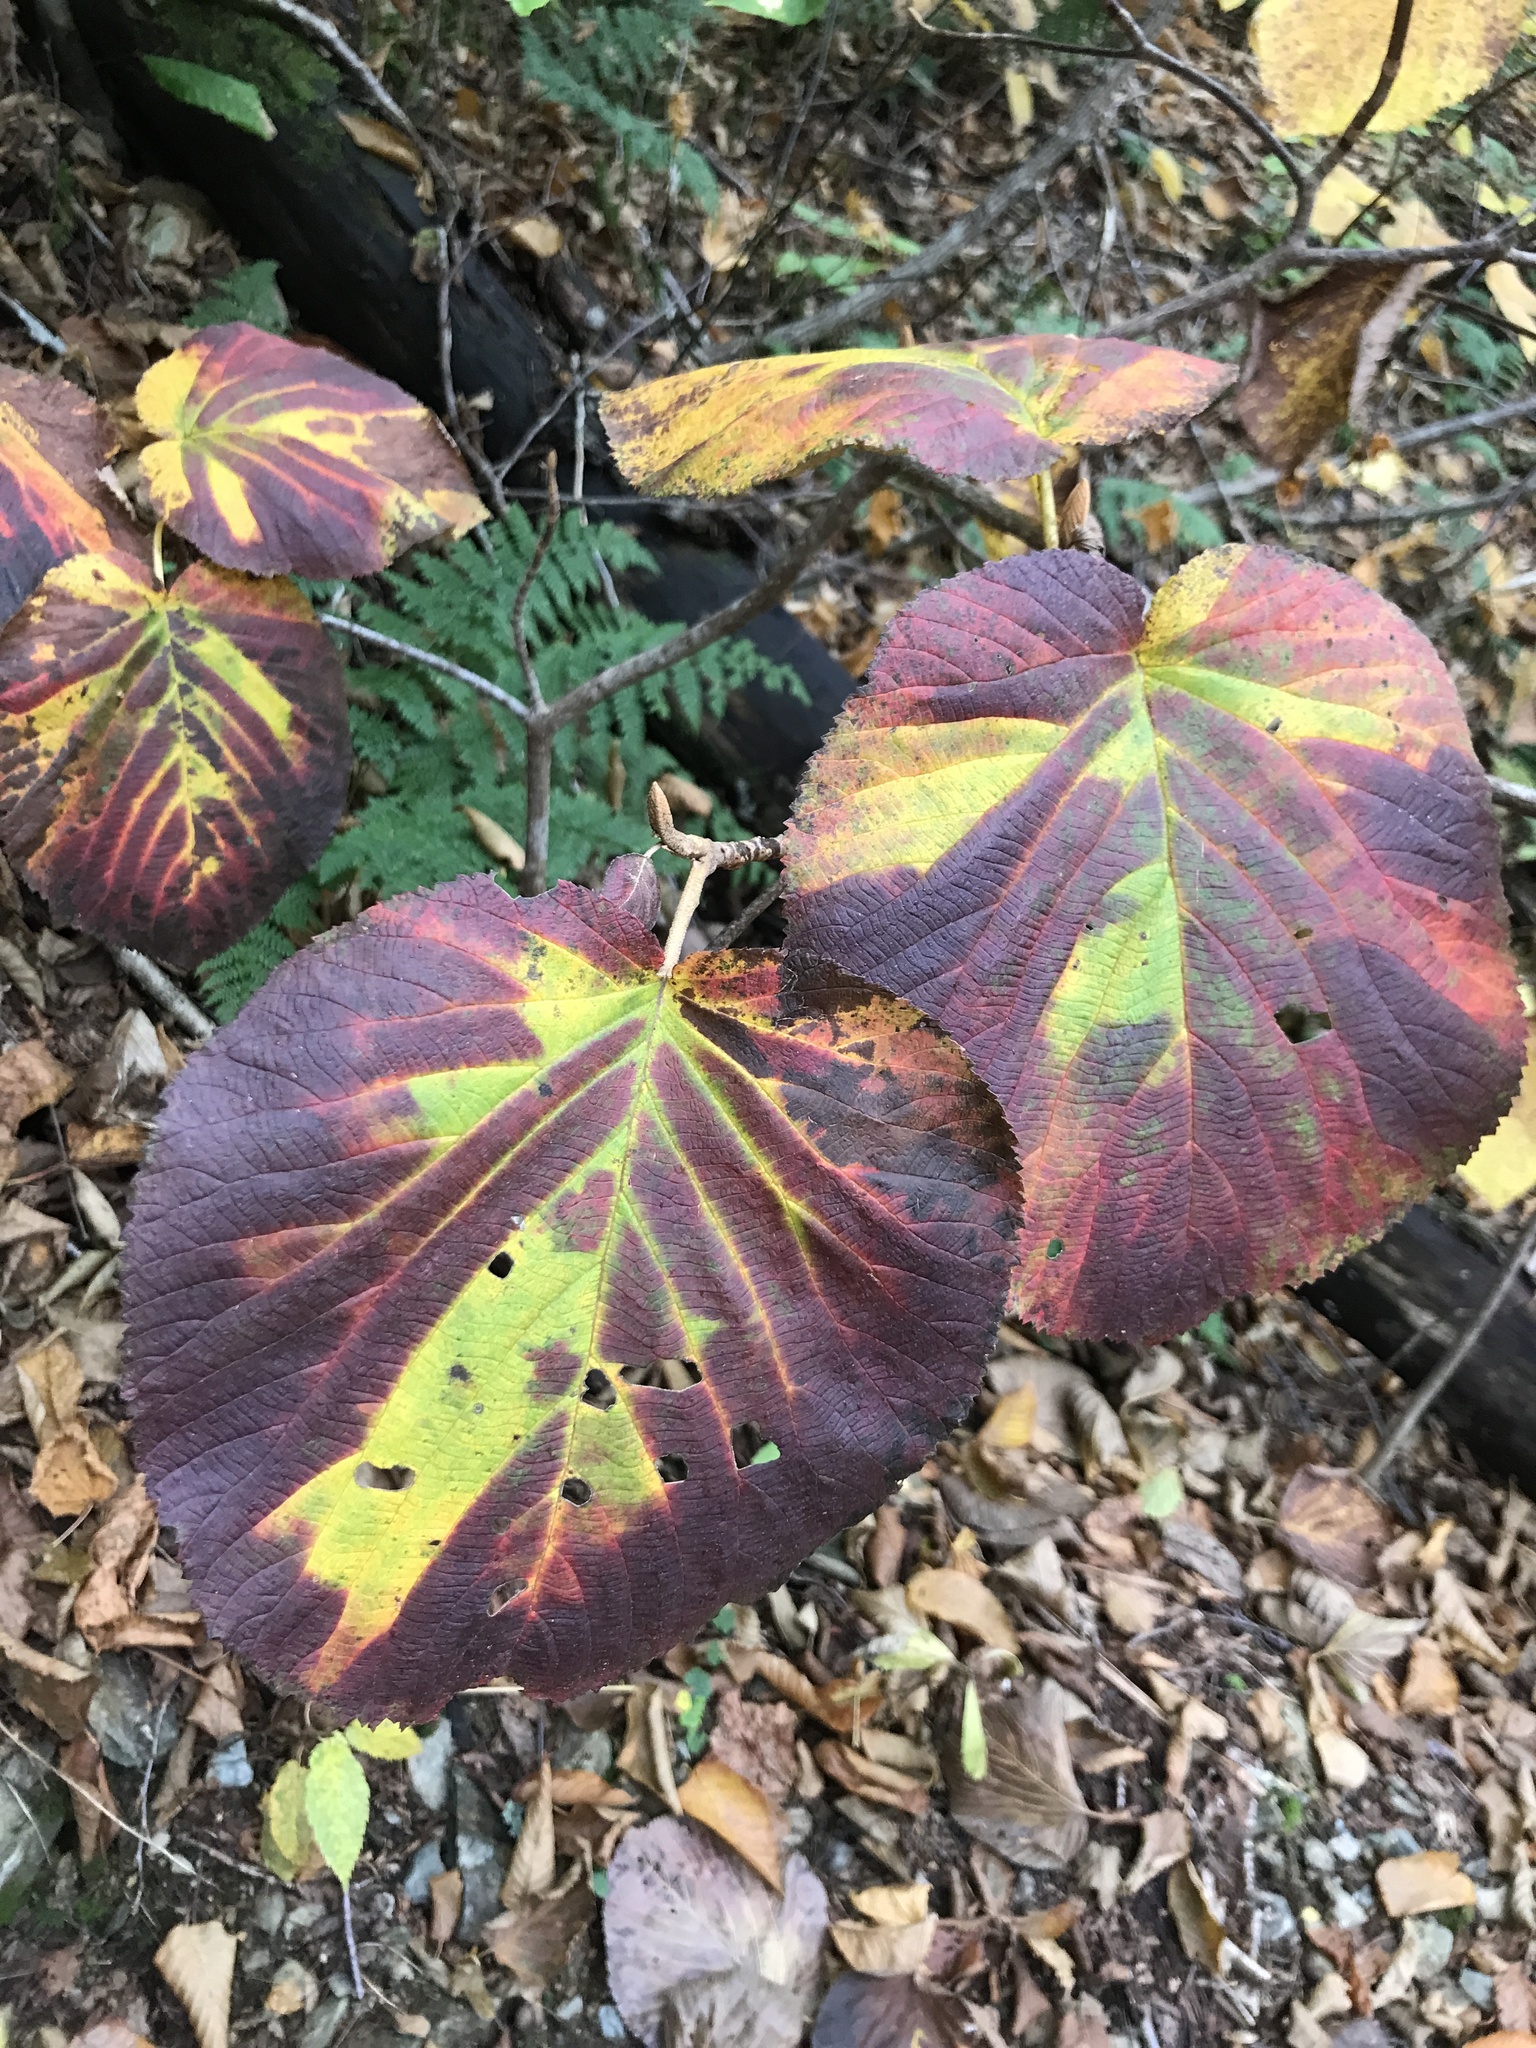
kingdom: Plantae
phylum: Tracheophyta
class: Magnoliopsida
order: Dipsacales
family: Viburnaceae
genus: Viburnum
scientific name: Viburnum lantanoides
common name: Hobblebush
